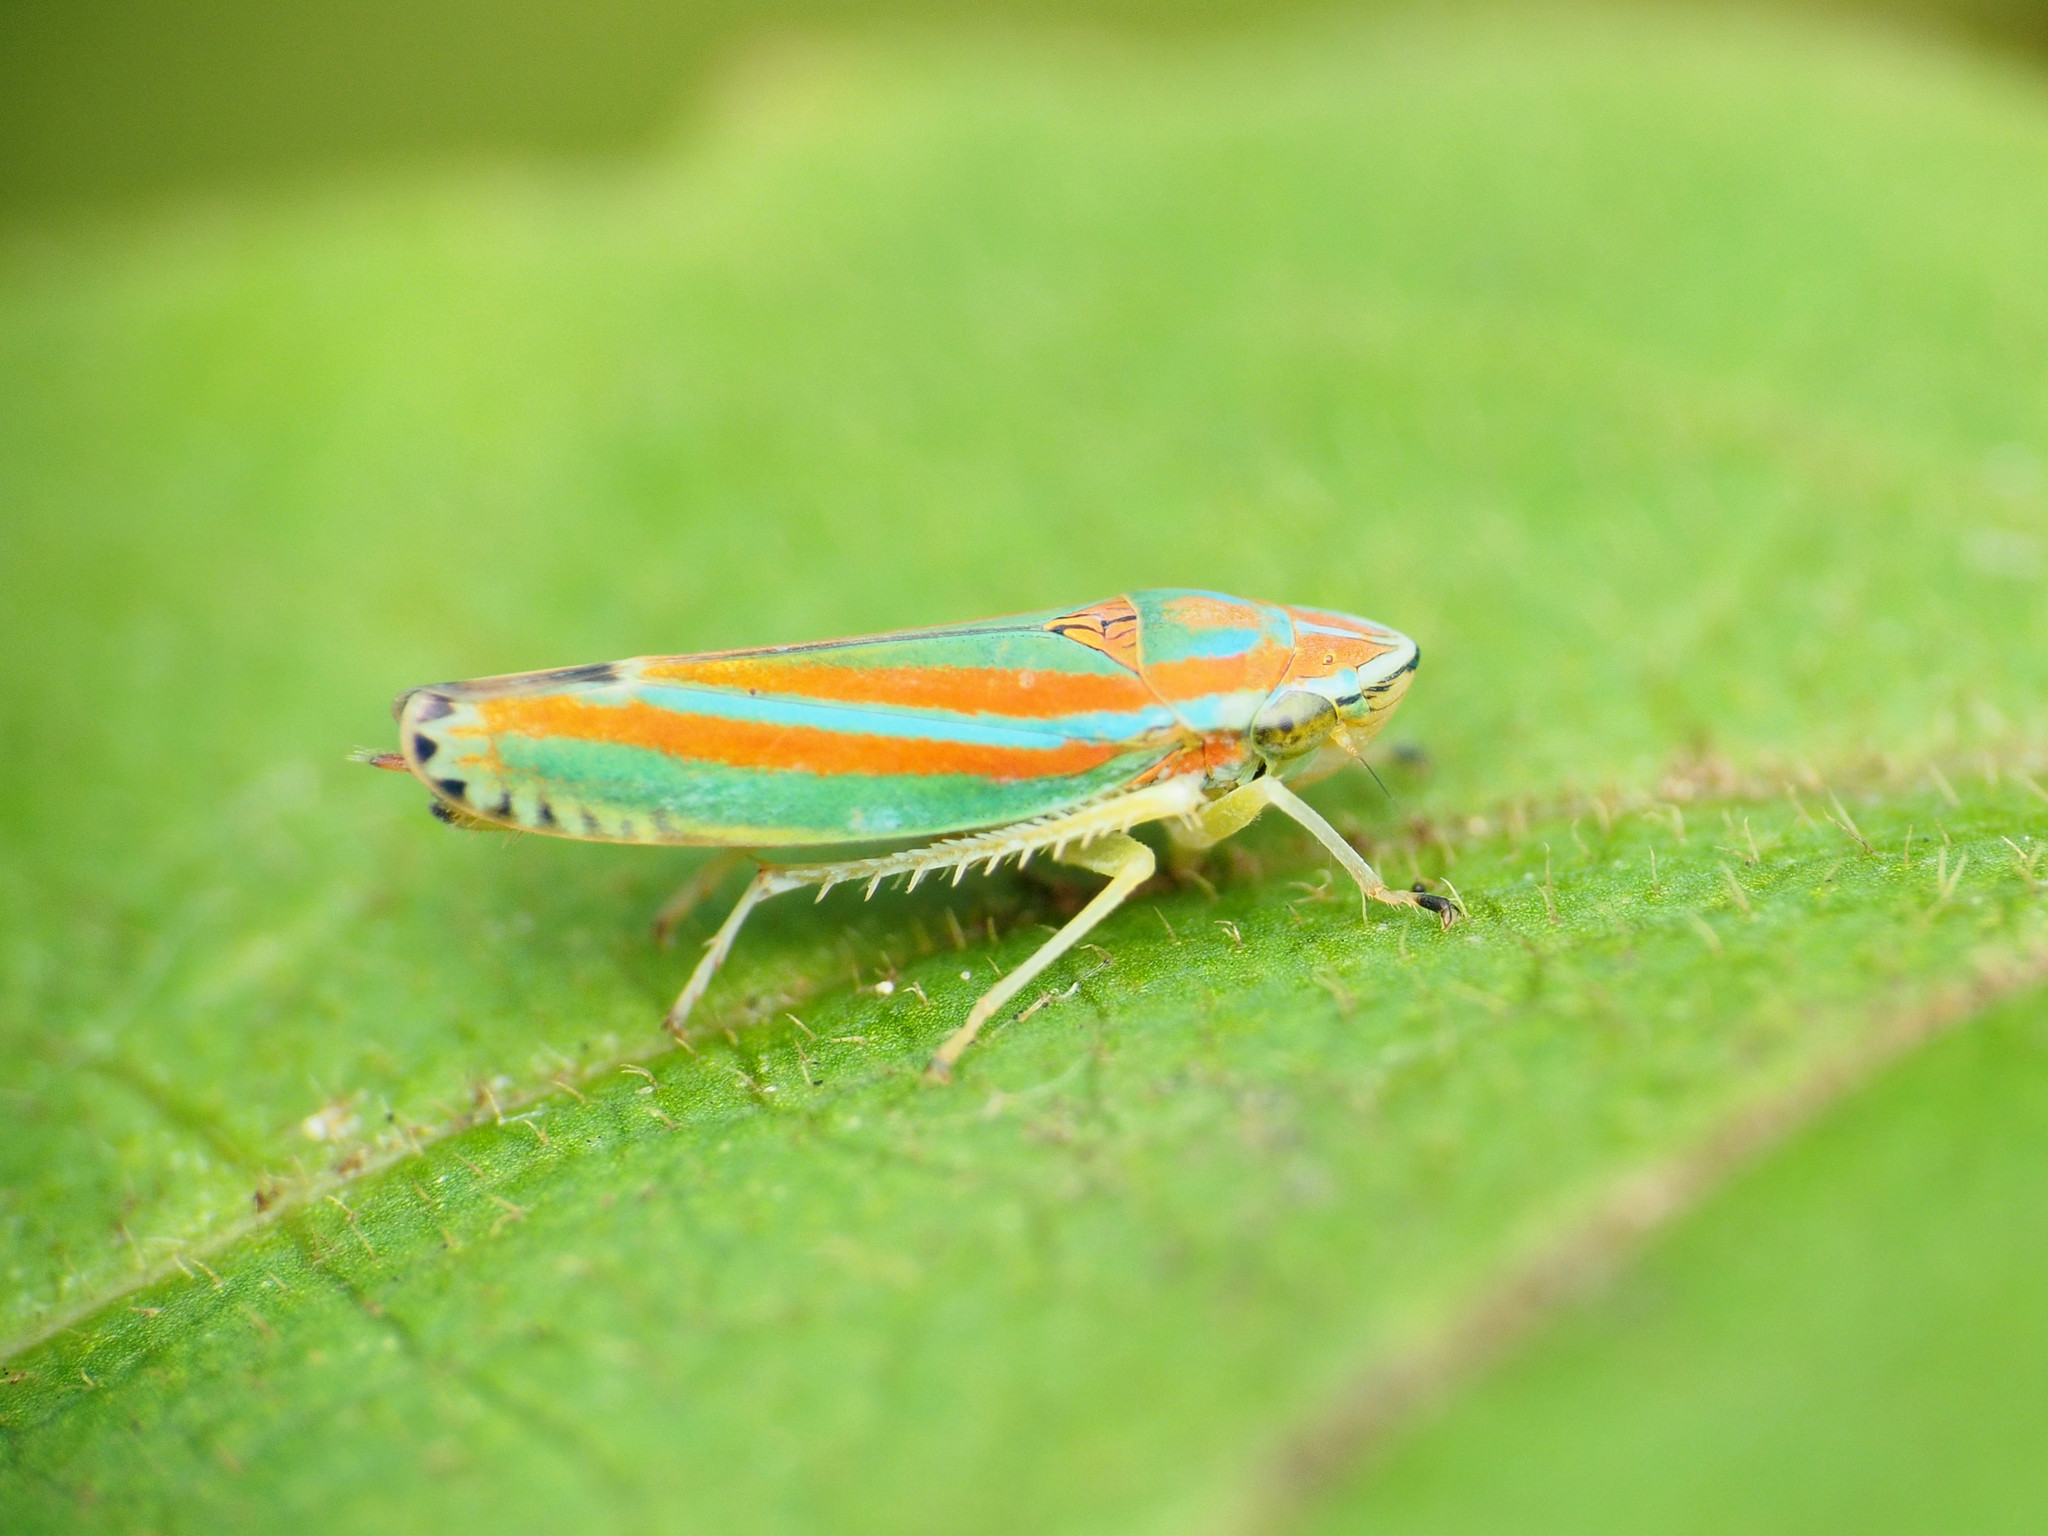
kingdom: Animalia
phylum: Arthropoda
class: Insecta
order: Hemiptera
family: Cicadellidae
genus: Graphocephala
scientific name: Graphocephala versuta
